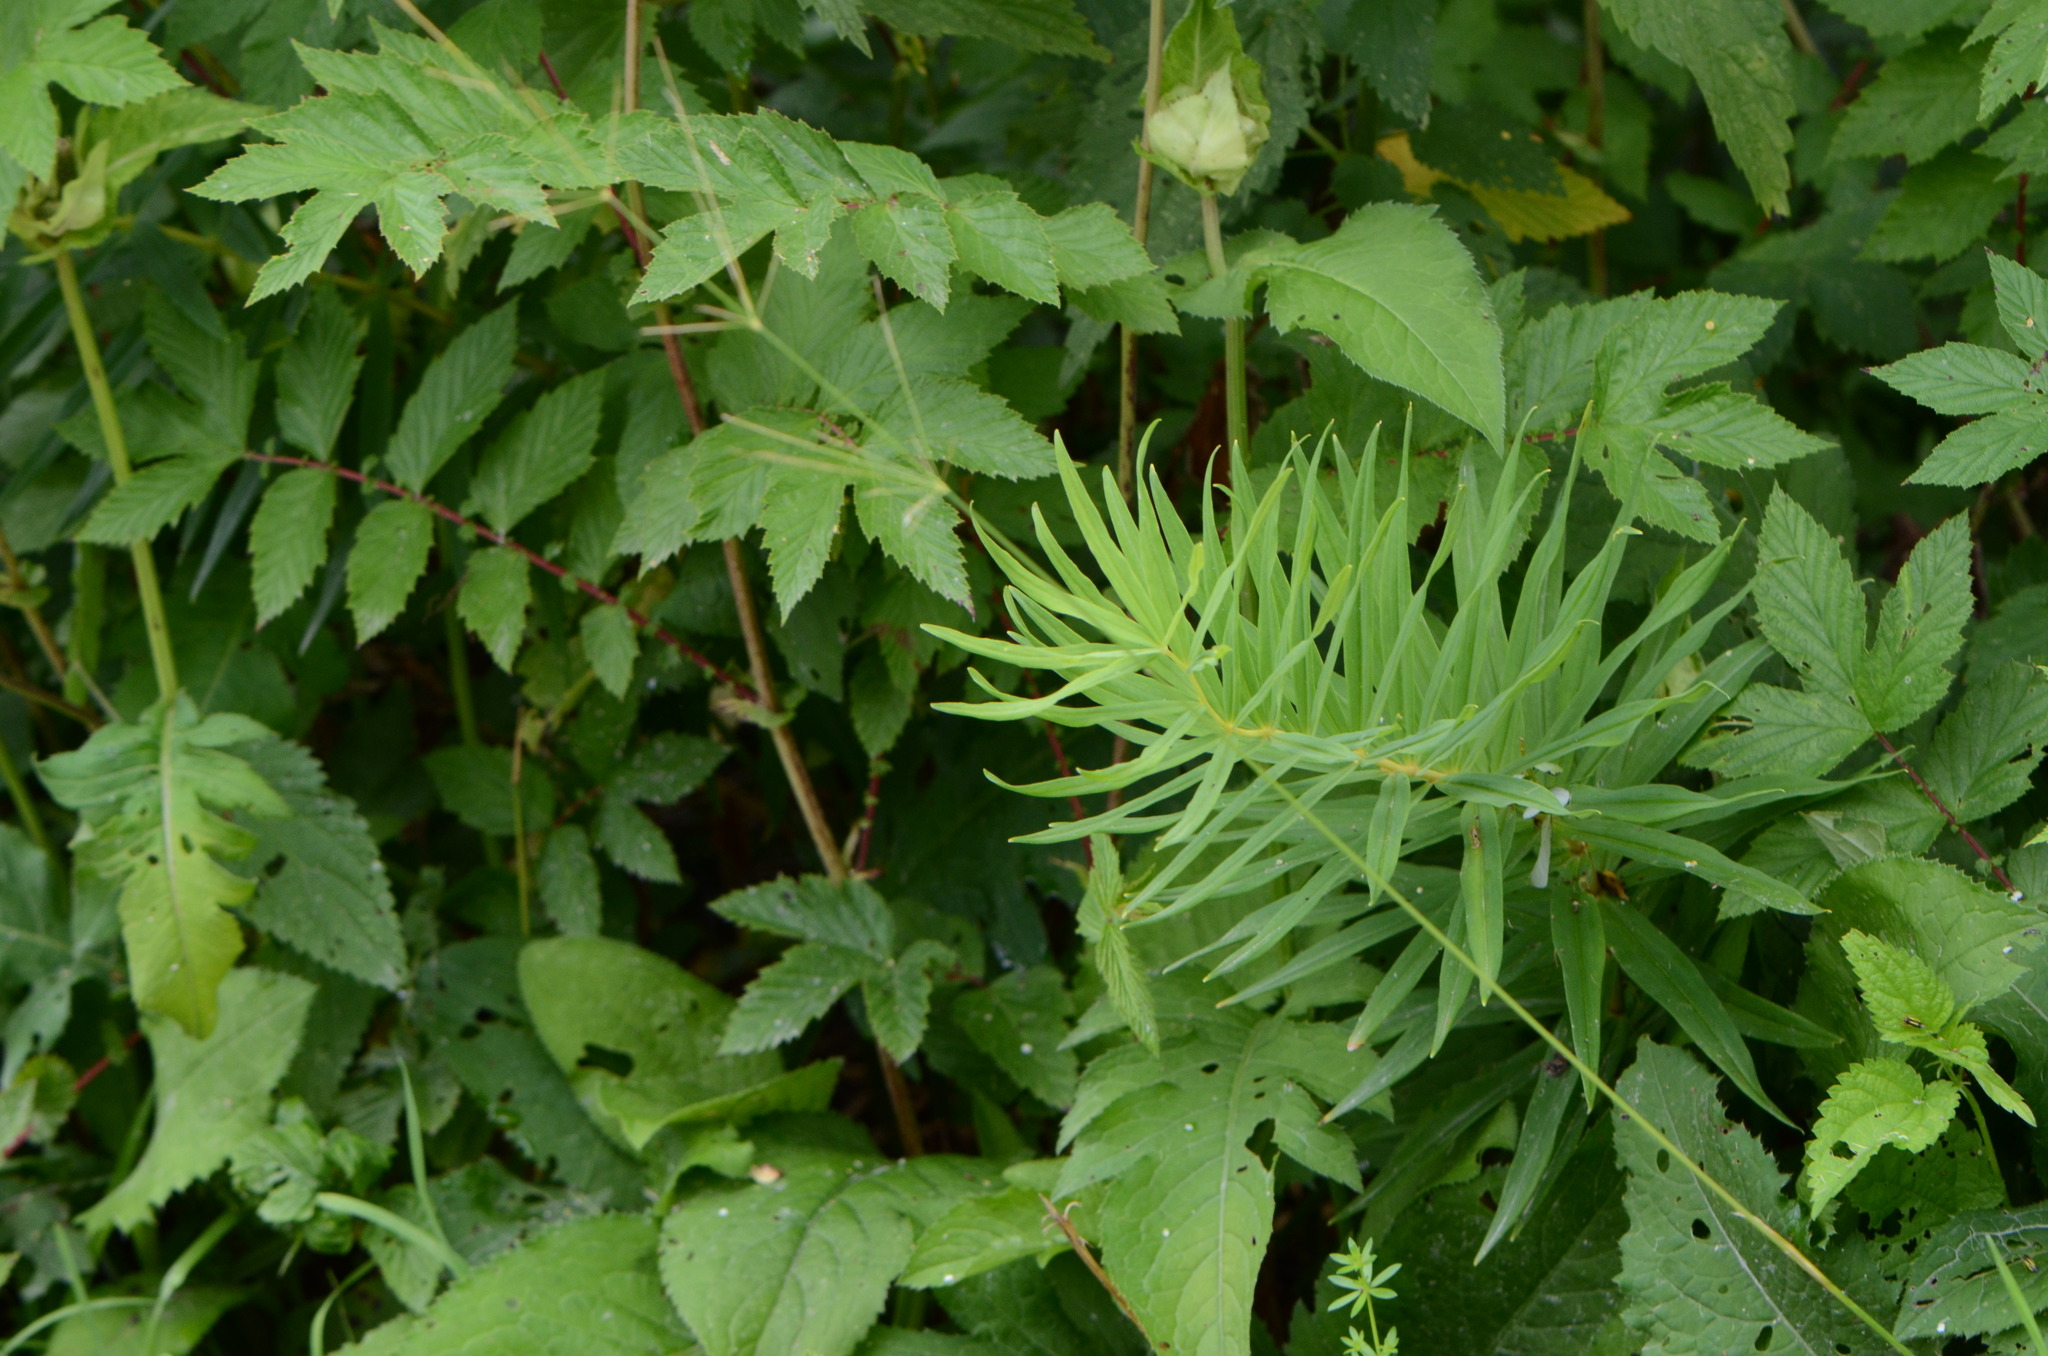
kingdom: Plantae
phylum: Tracheophyta
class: Liliopsida
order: Asparagales
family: Asparagaceae
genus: Polygonatum
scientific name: Polygonatum verticillatum
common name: Whorled solomon's-seal
